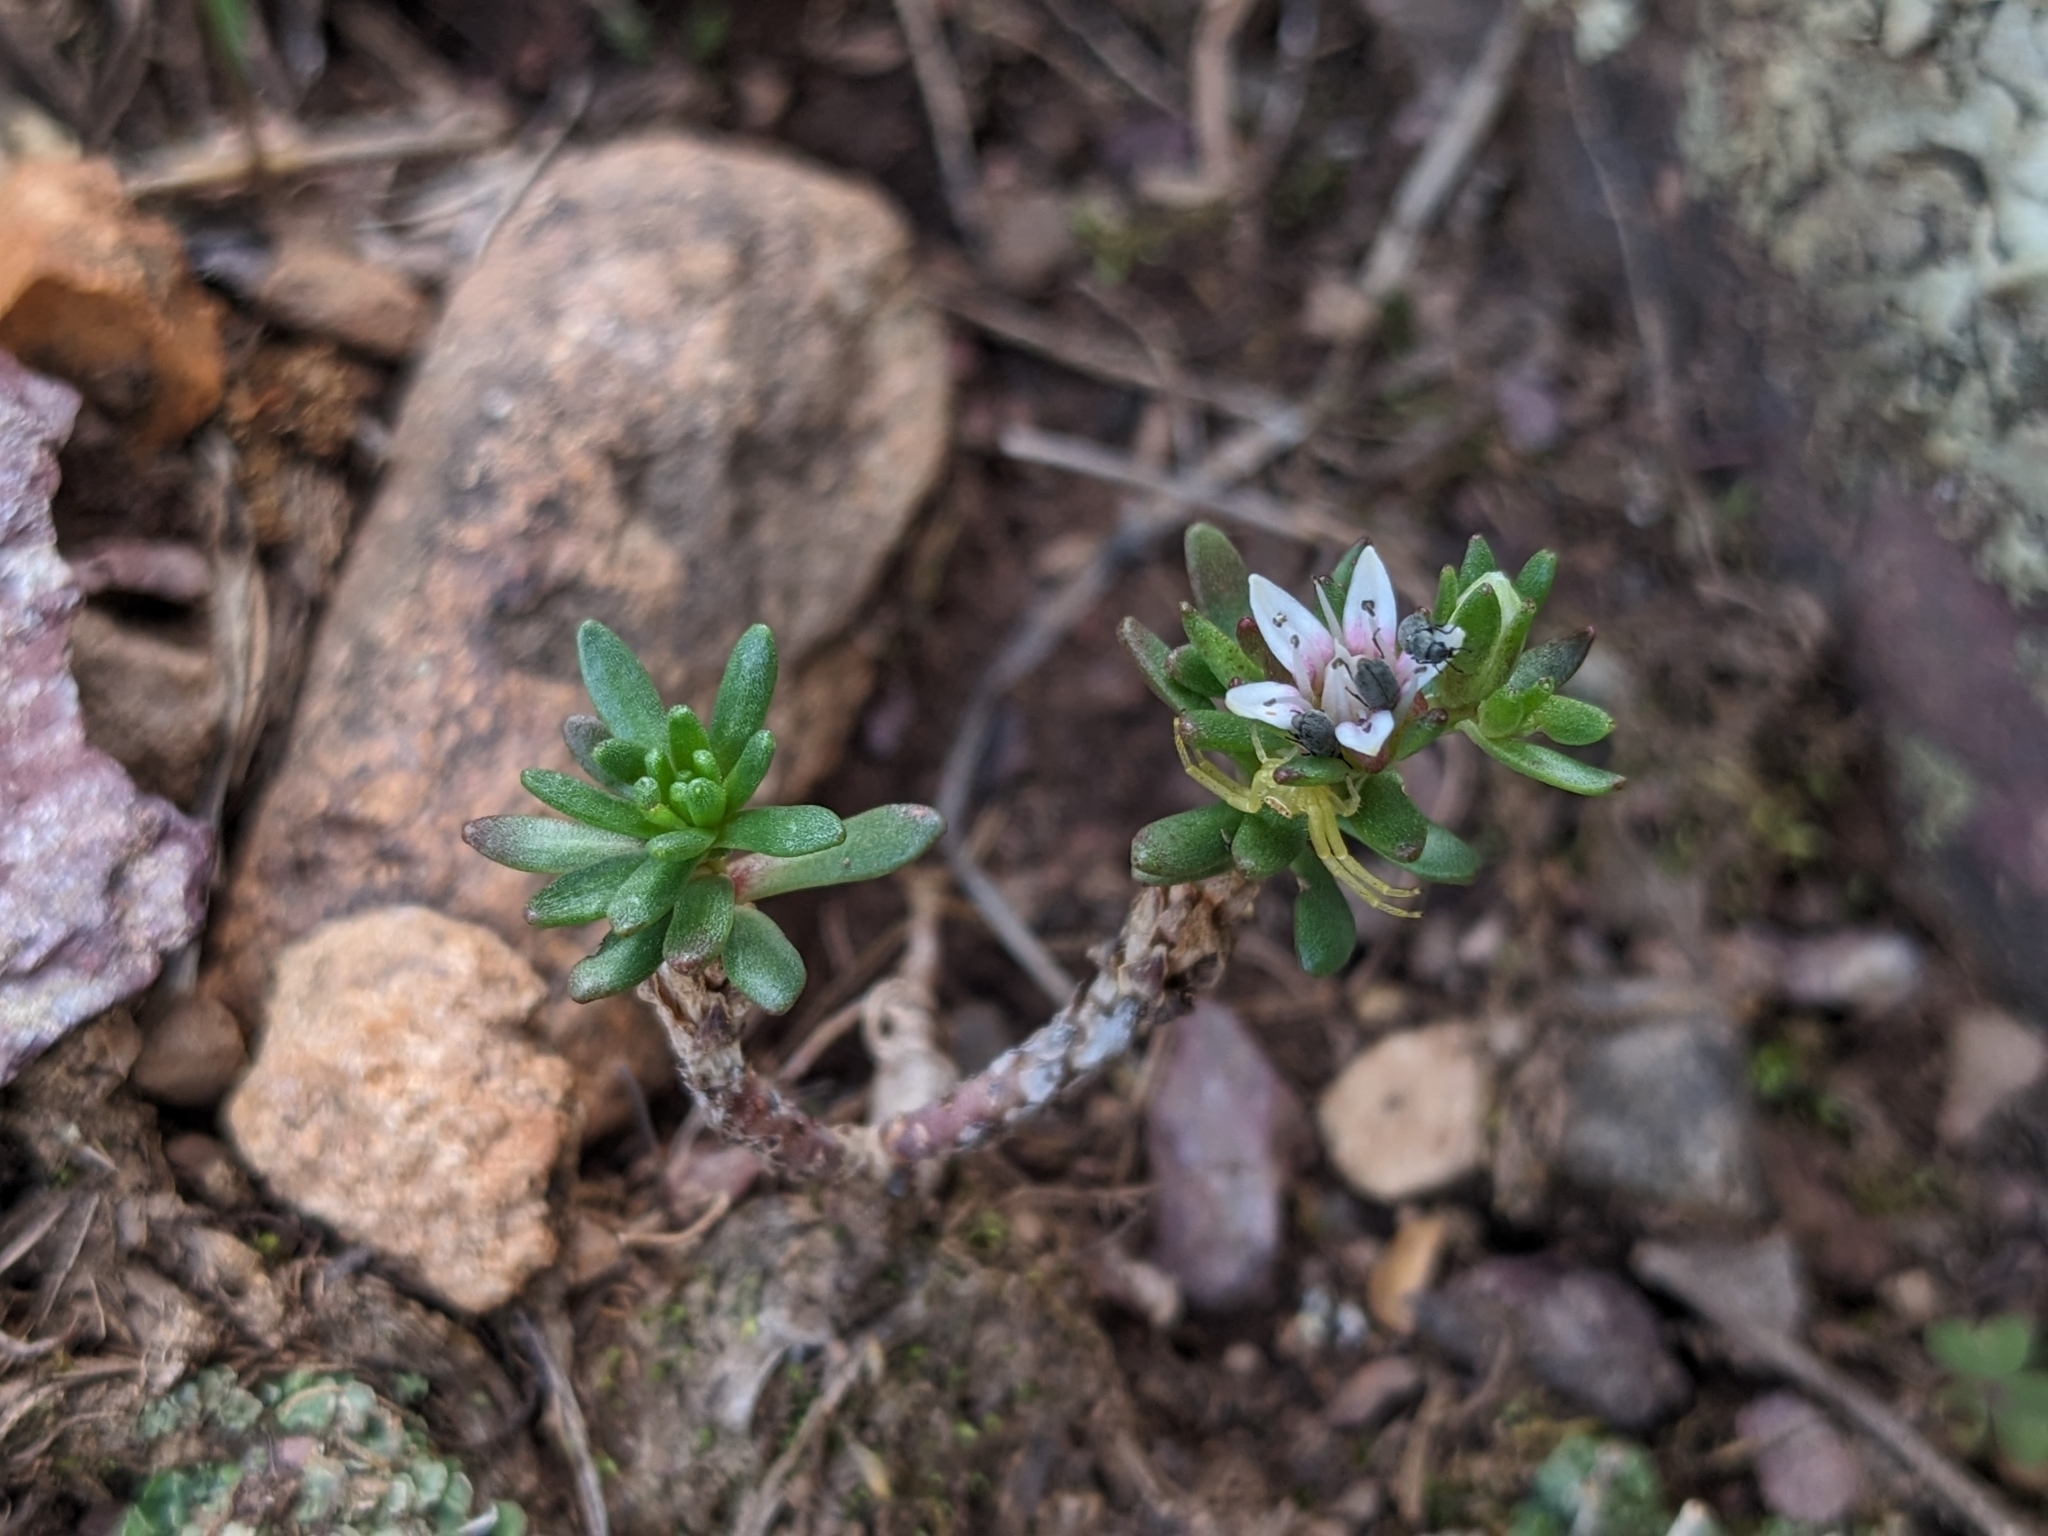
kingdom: Plantae
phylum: Tracheophyta
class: Magnoliopsida
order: Saxifragales
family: Crassulaceae
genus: Sedum
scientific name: Sedum cockerellii
